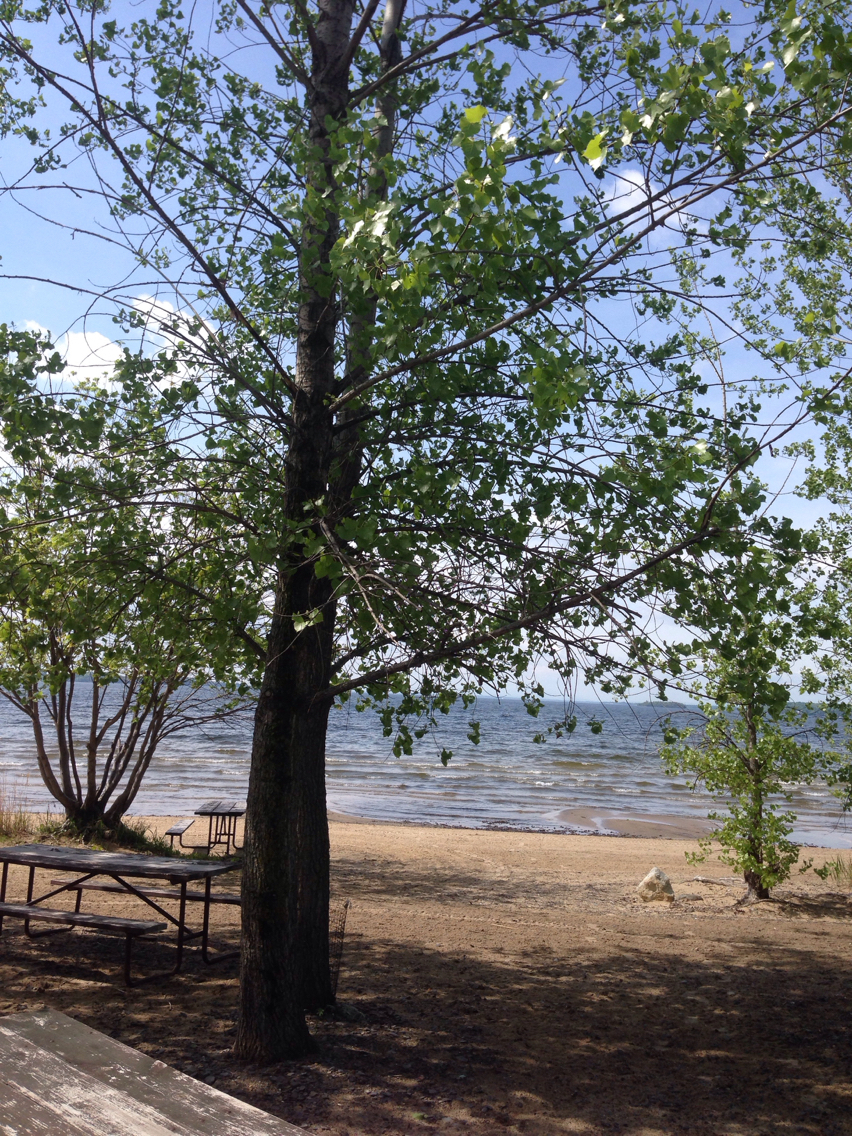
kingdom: Plantae
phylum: Tracheophyta
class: Magnoliopsida
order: Malpighiales
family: Salicaceae
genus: Populus
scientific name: Populus deltoides
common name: Eastern cottonwood
